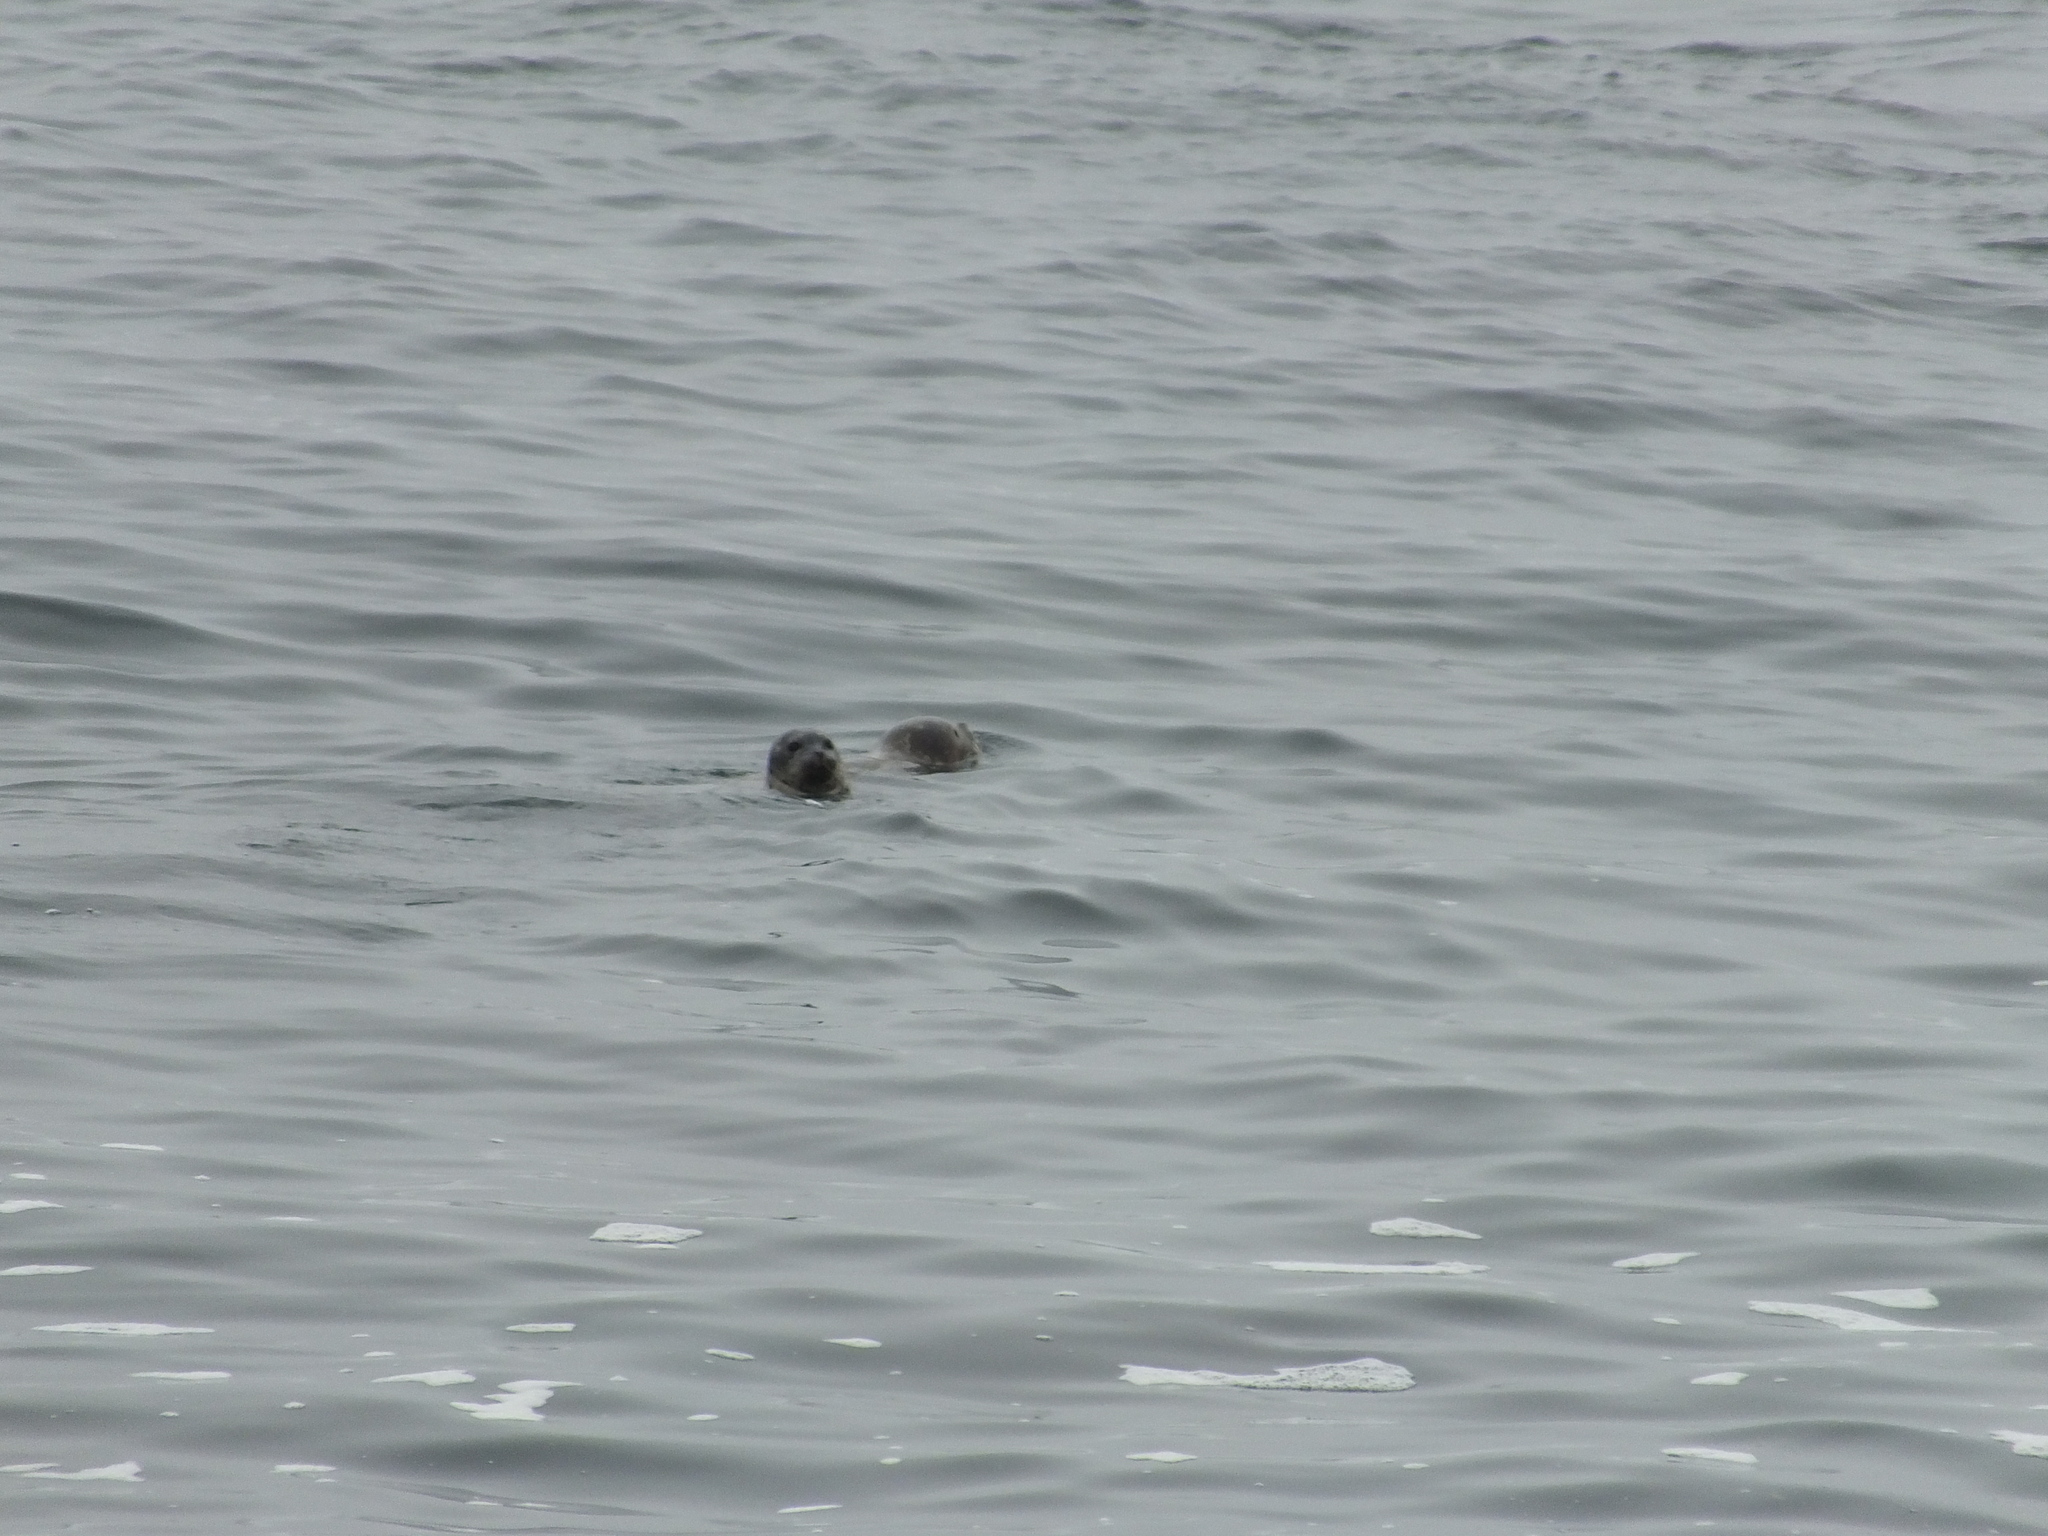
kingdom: Animalia
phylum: Chordata
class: Mammalia
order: Carnivora
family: Phocidae
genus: Phoca
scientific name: Phoca vitulina
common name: Harbor seal
